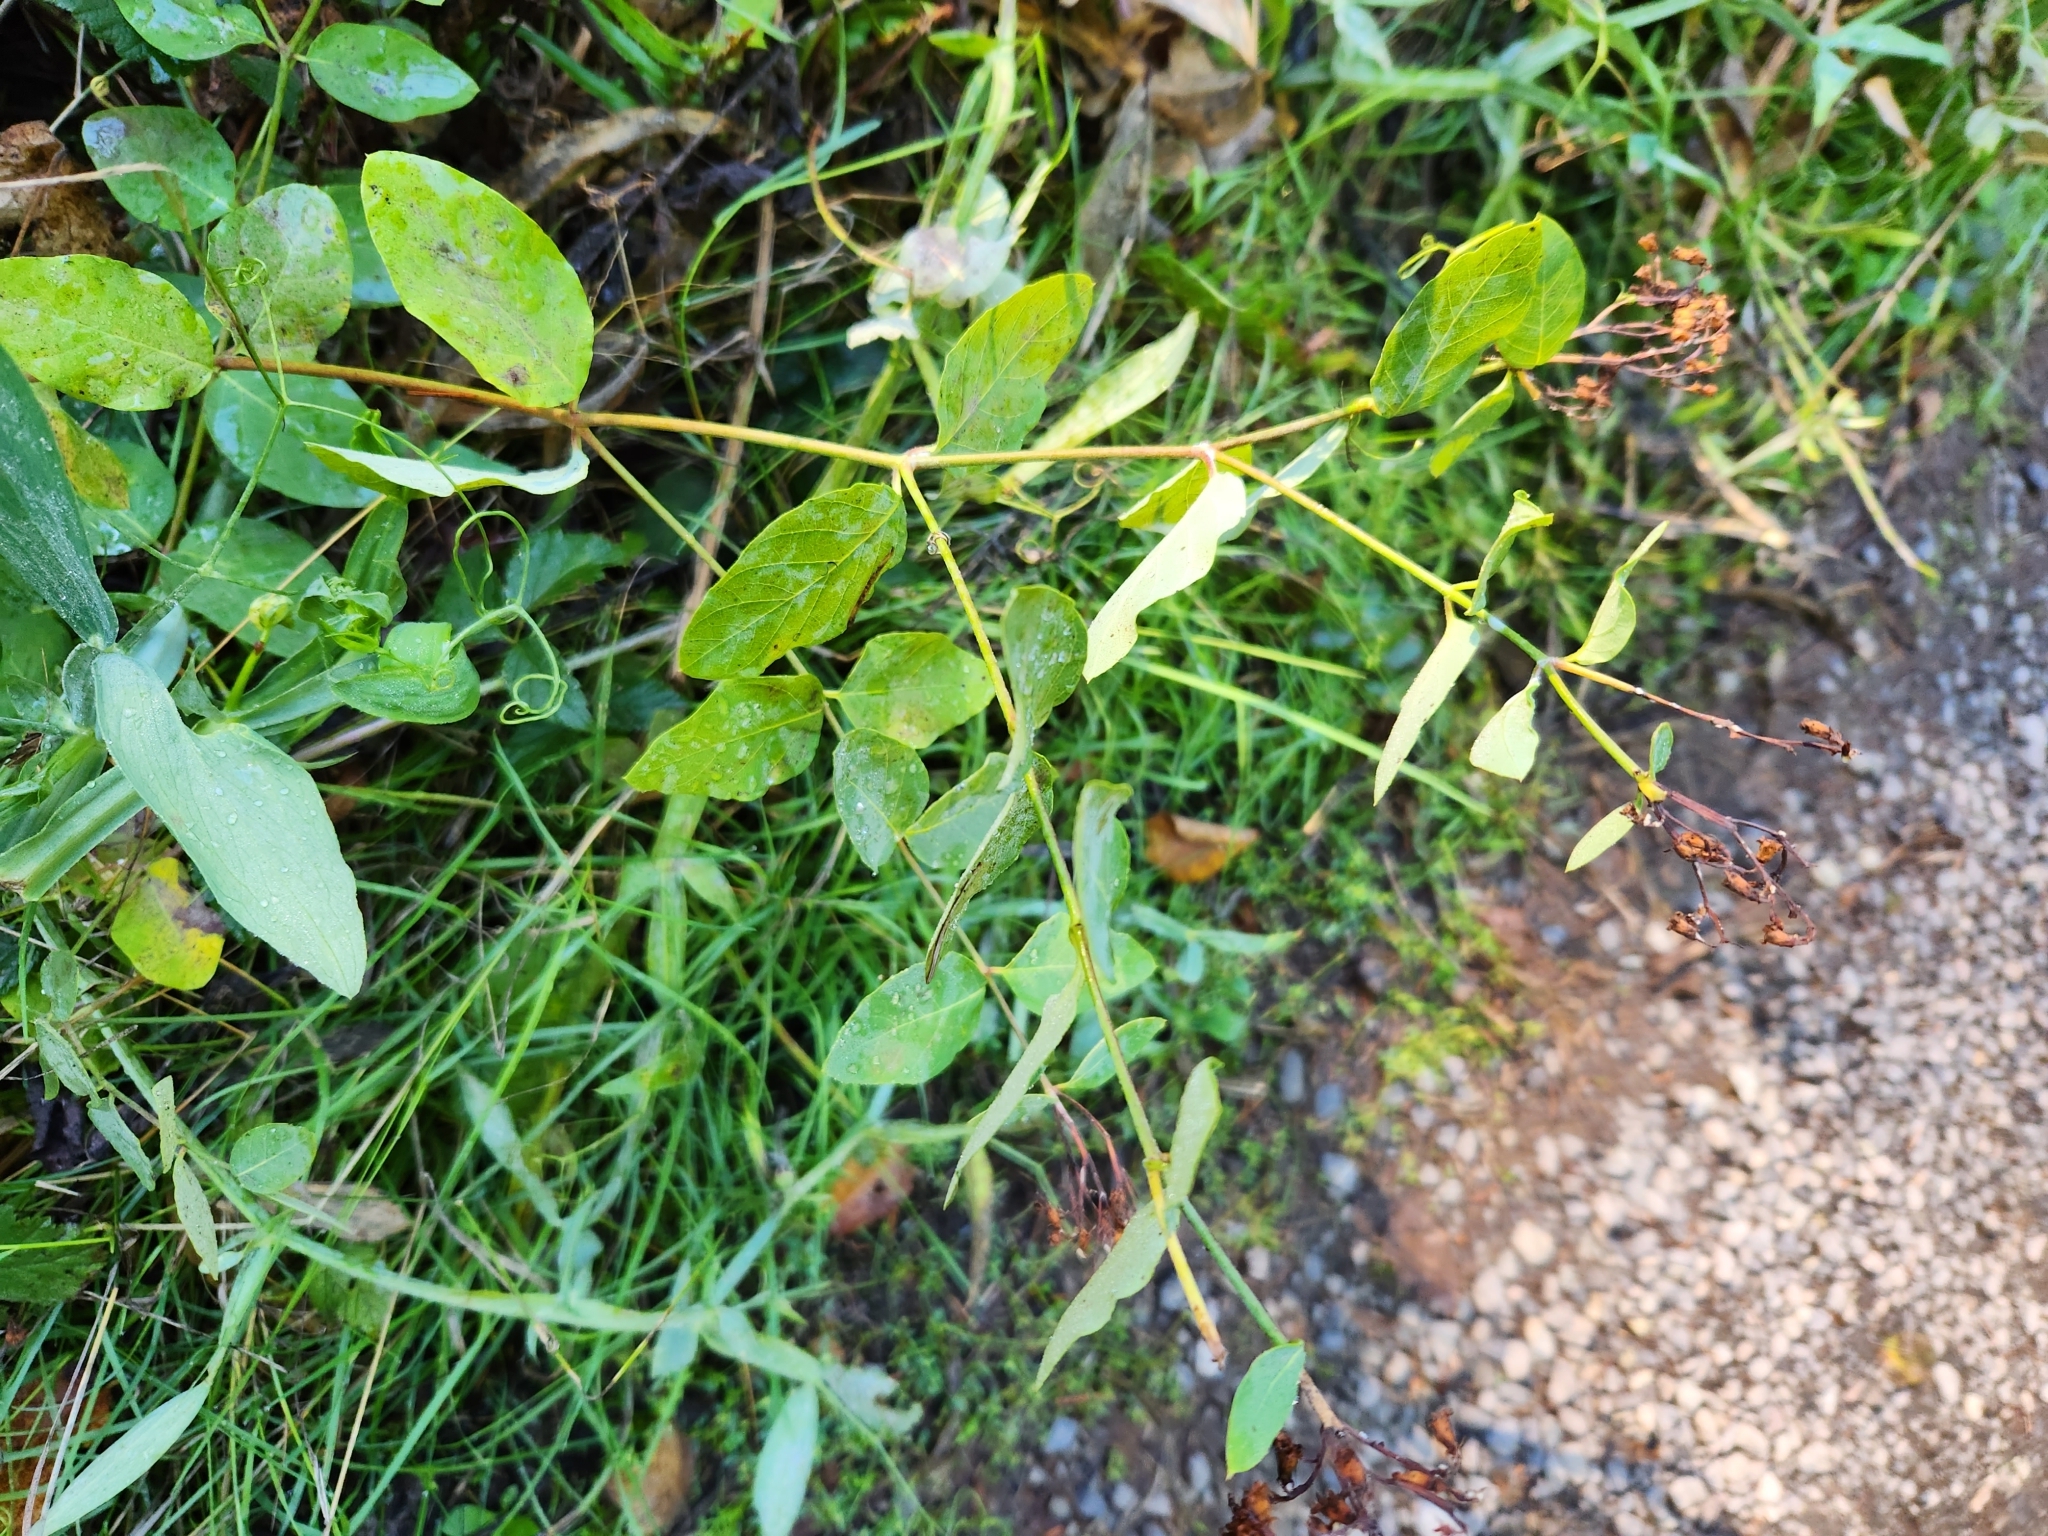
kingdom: Plantae
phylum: Tracheophyta
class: Magnoliopsida
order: Gentianales
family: Apocynaceae
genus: Apocynum
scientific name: Apocynum androsaemifolium
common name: Spreading dogbane
